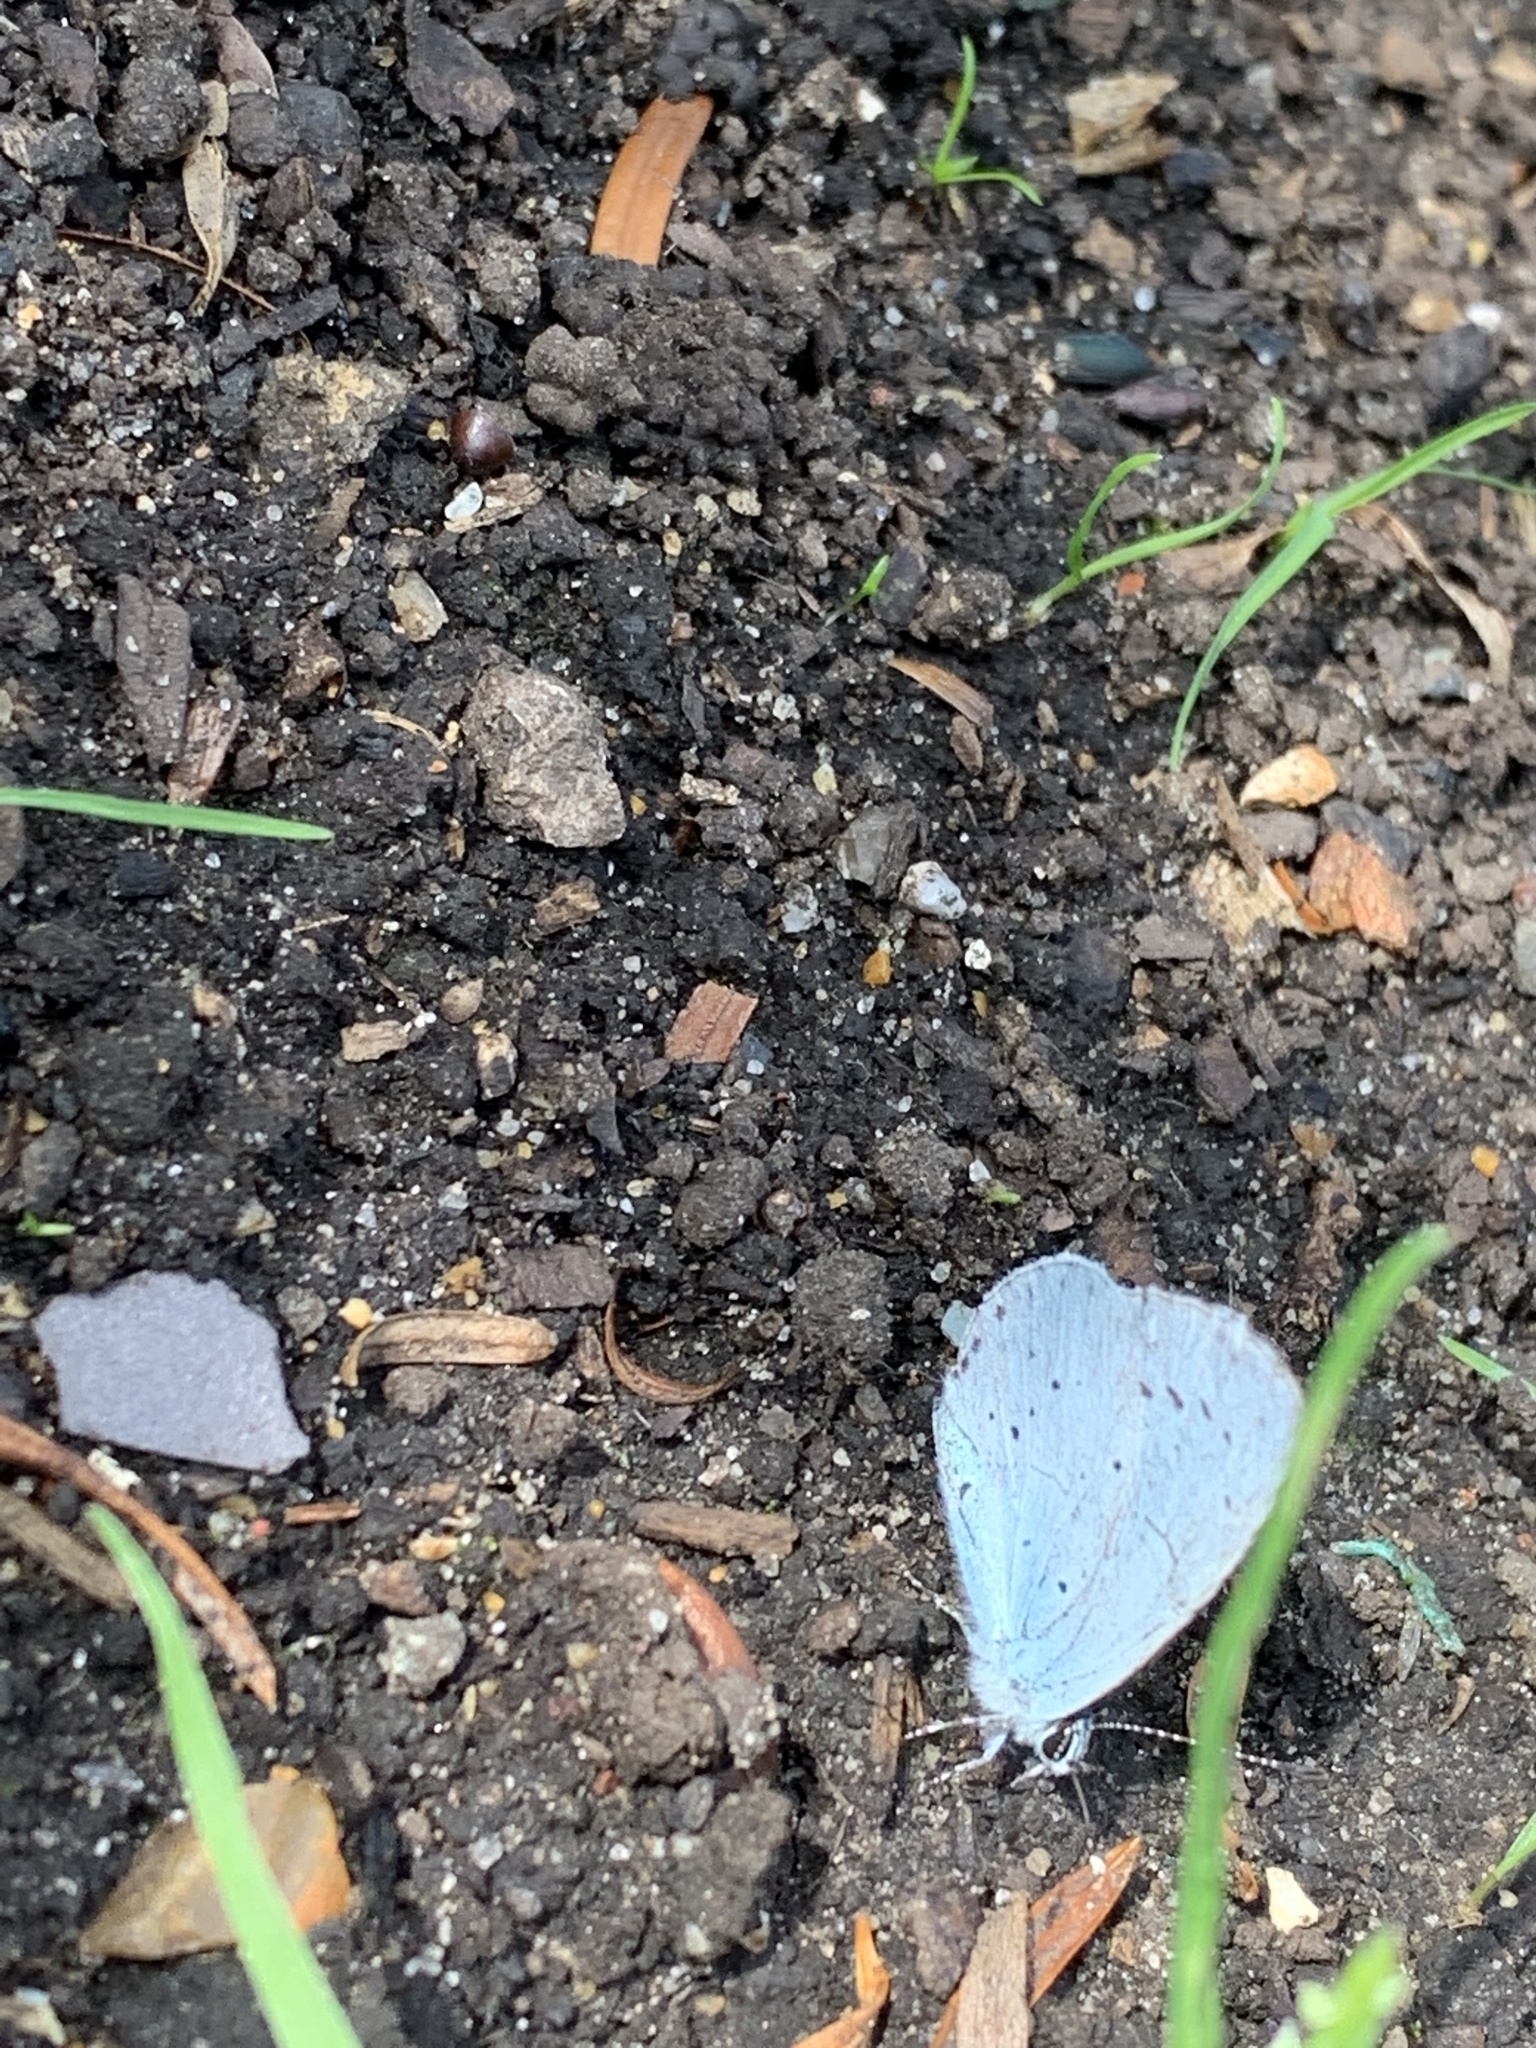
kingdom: Animalia
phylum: Arthropoda
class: Insecta
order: Lepidoptera
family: Lycaenidae
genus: Celastrina
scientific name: Celastrina argiolus
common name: Holly blue
